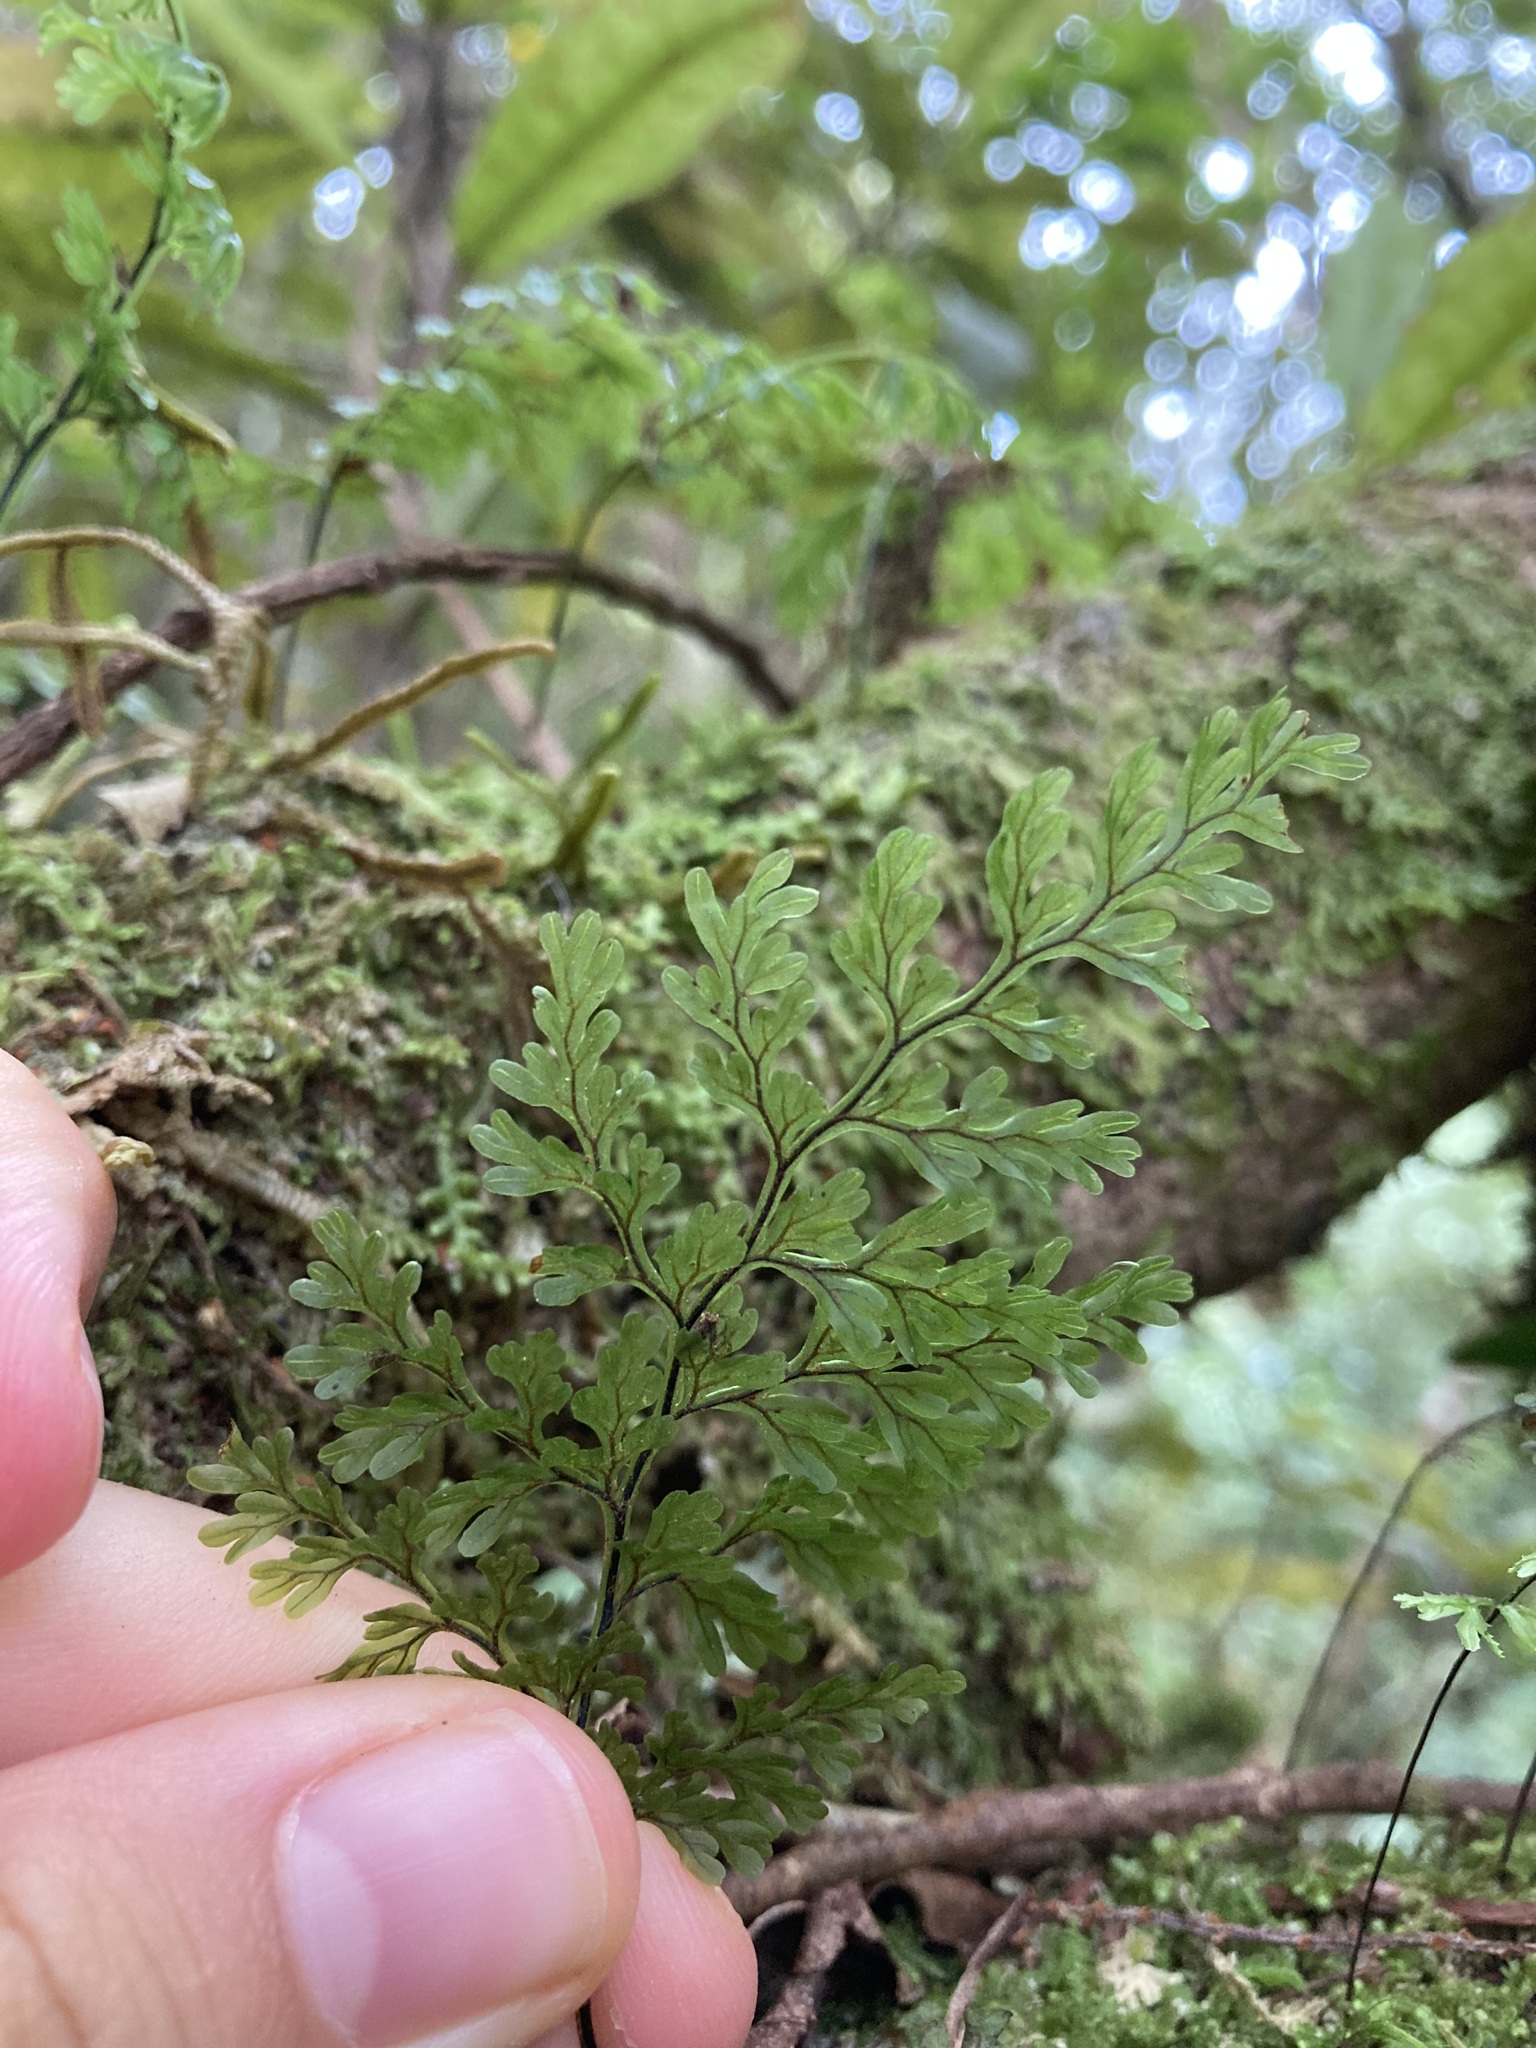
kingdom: Plantae
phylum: Tracheophyta
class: Polypodiopsida
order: Hymenophyllales
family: Hymenophyllaceae
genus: Hymenophyllum
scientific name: Hymenophyllum sanguinolentum
